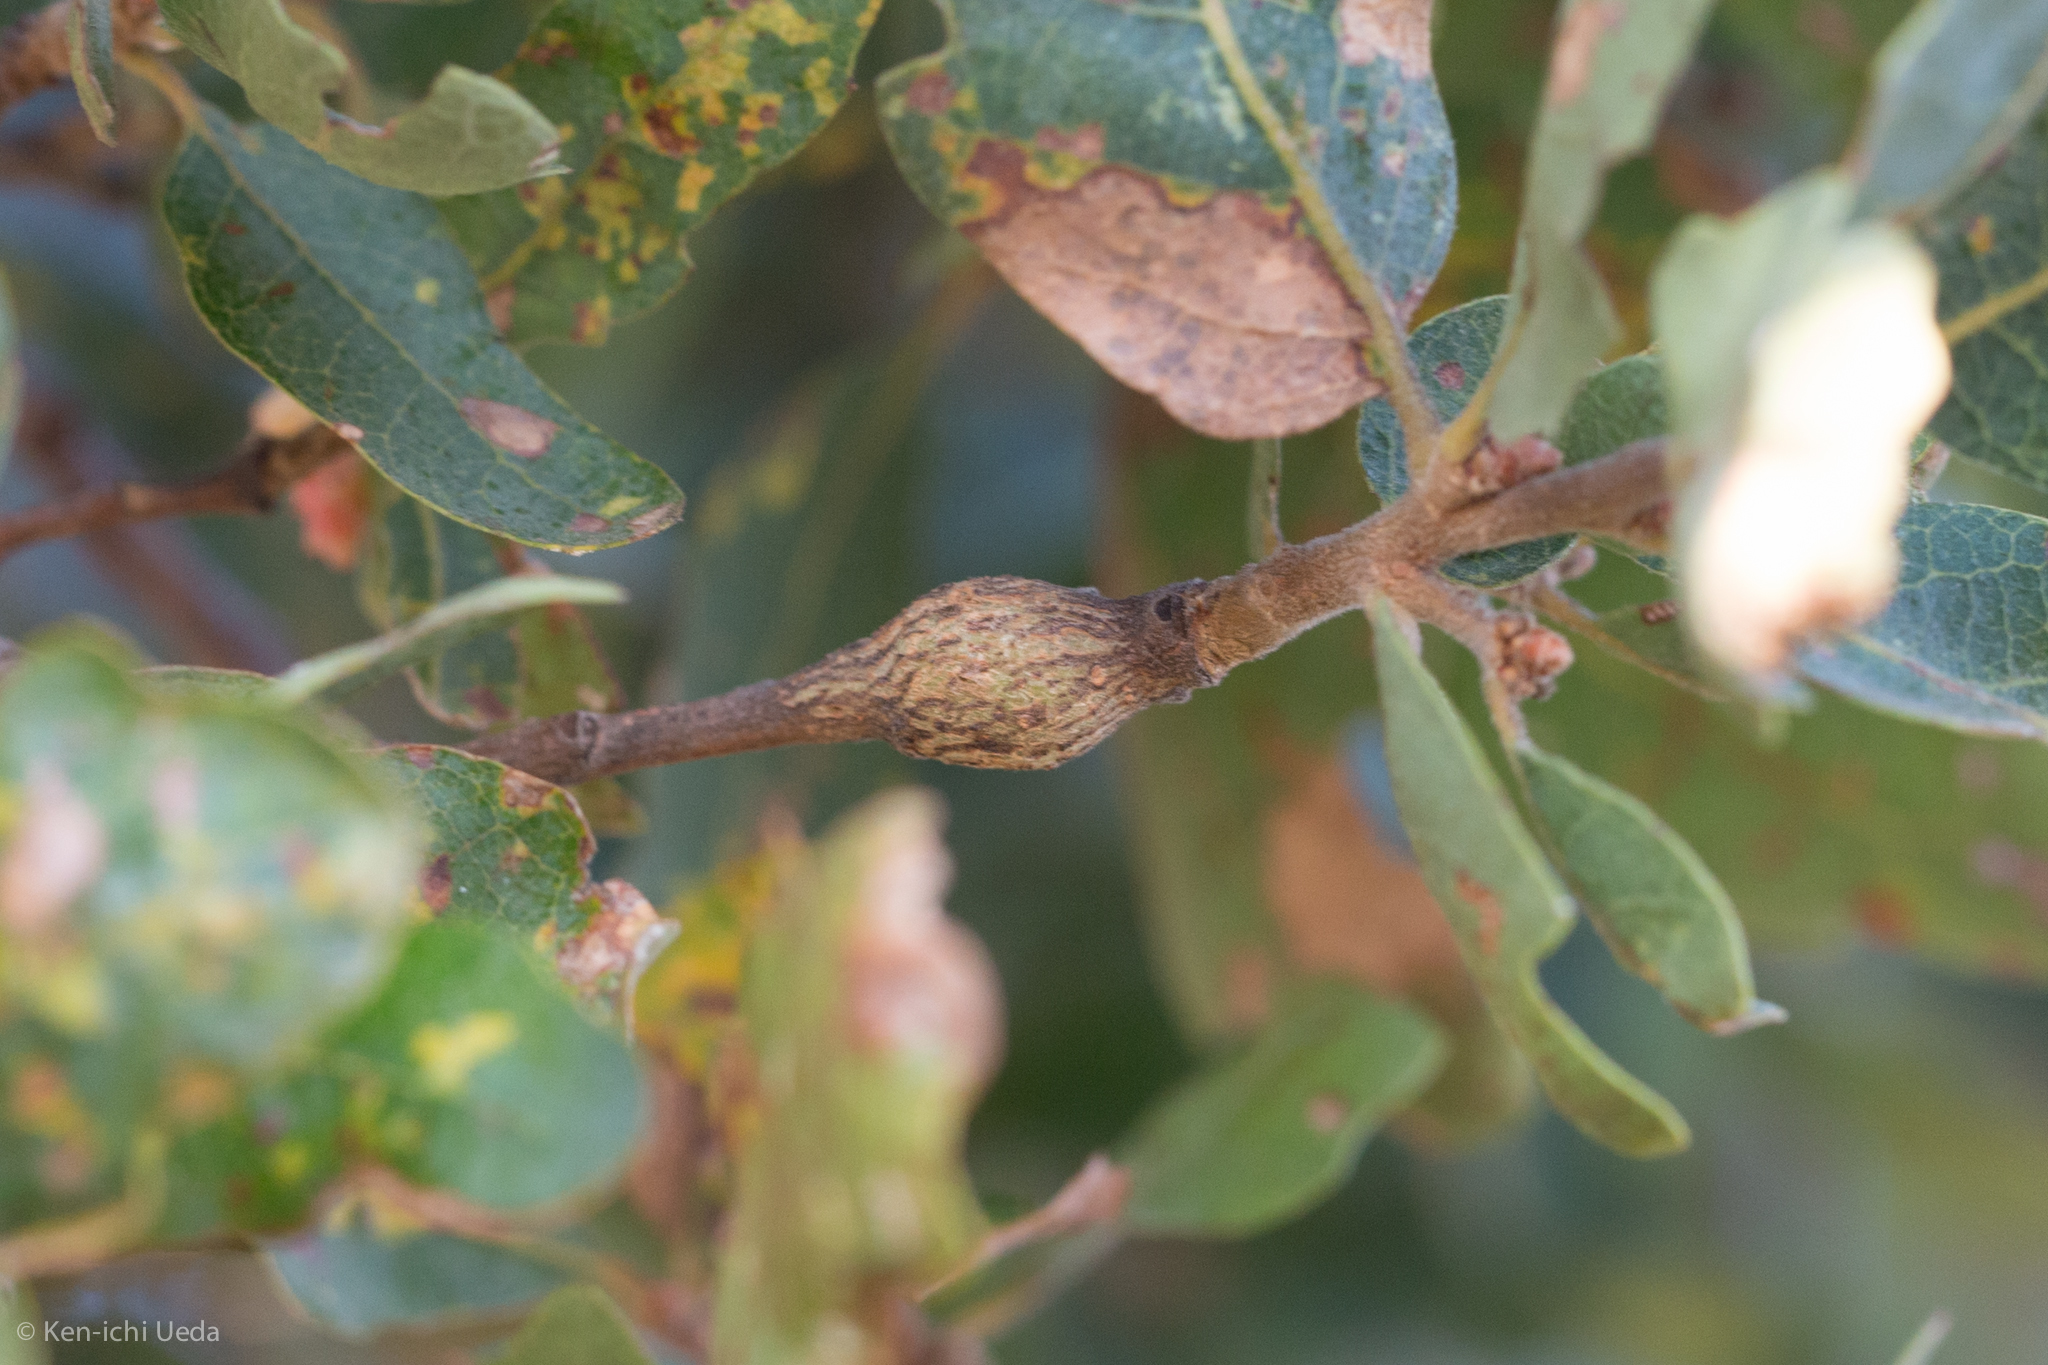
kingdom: Animalia
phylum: Arthropoda
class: Insecta
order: Hymenoptera
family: Cynipidae
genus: Andricus
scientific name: Andricus
